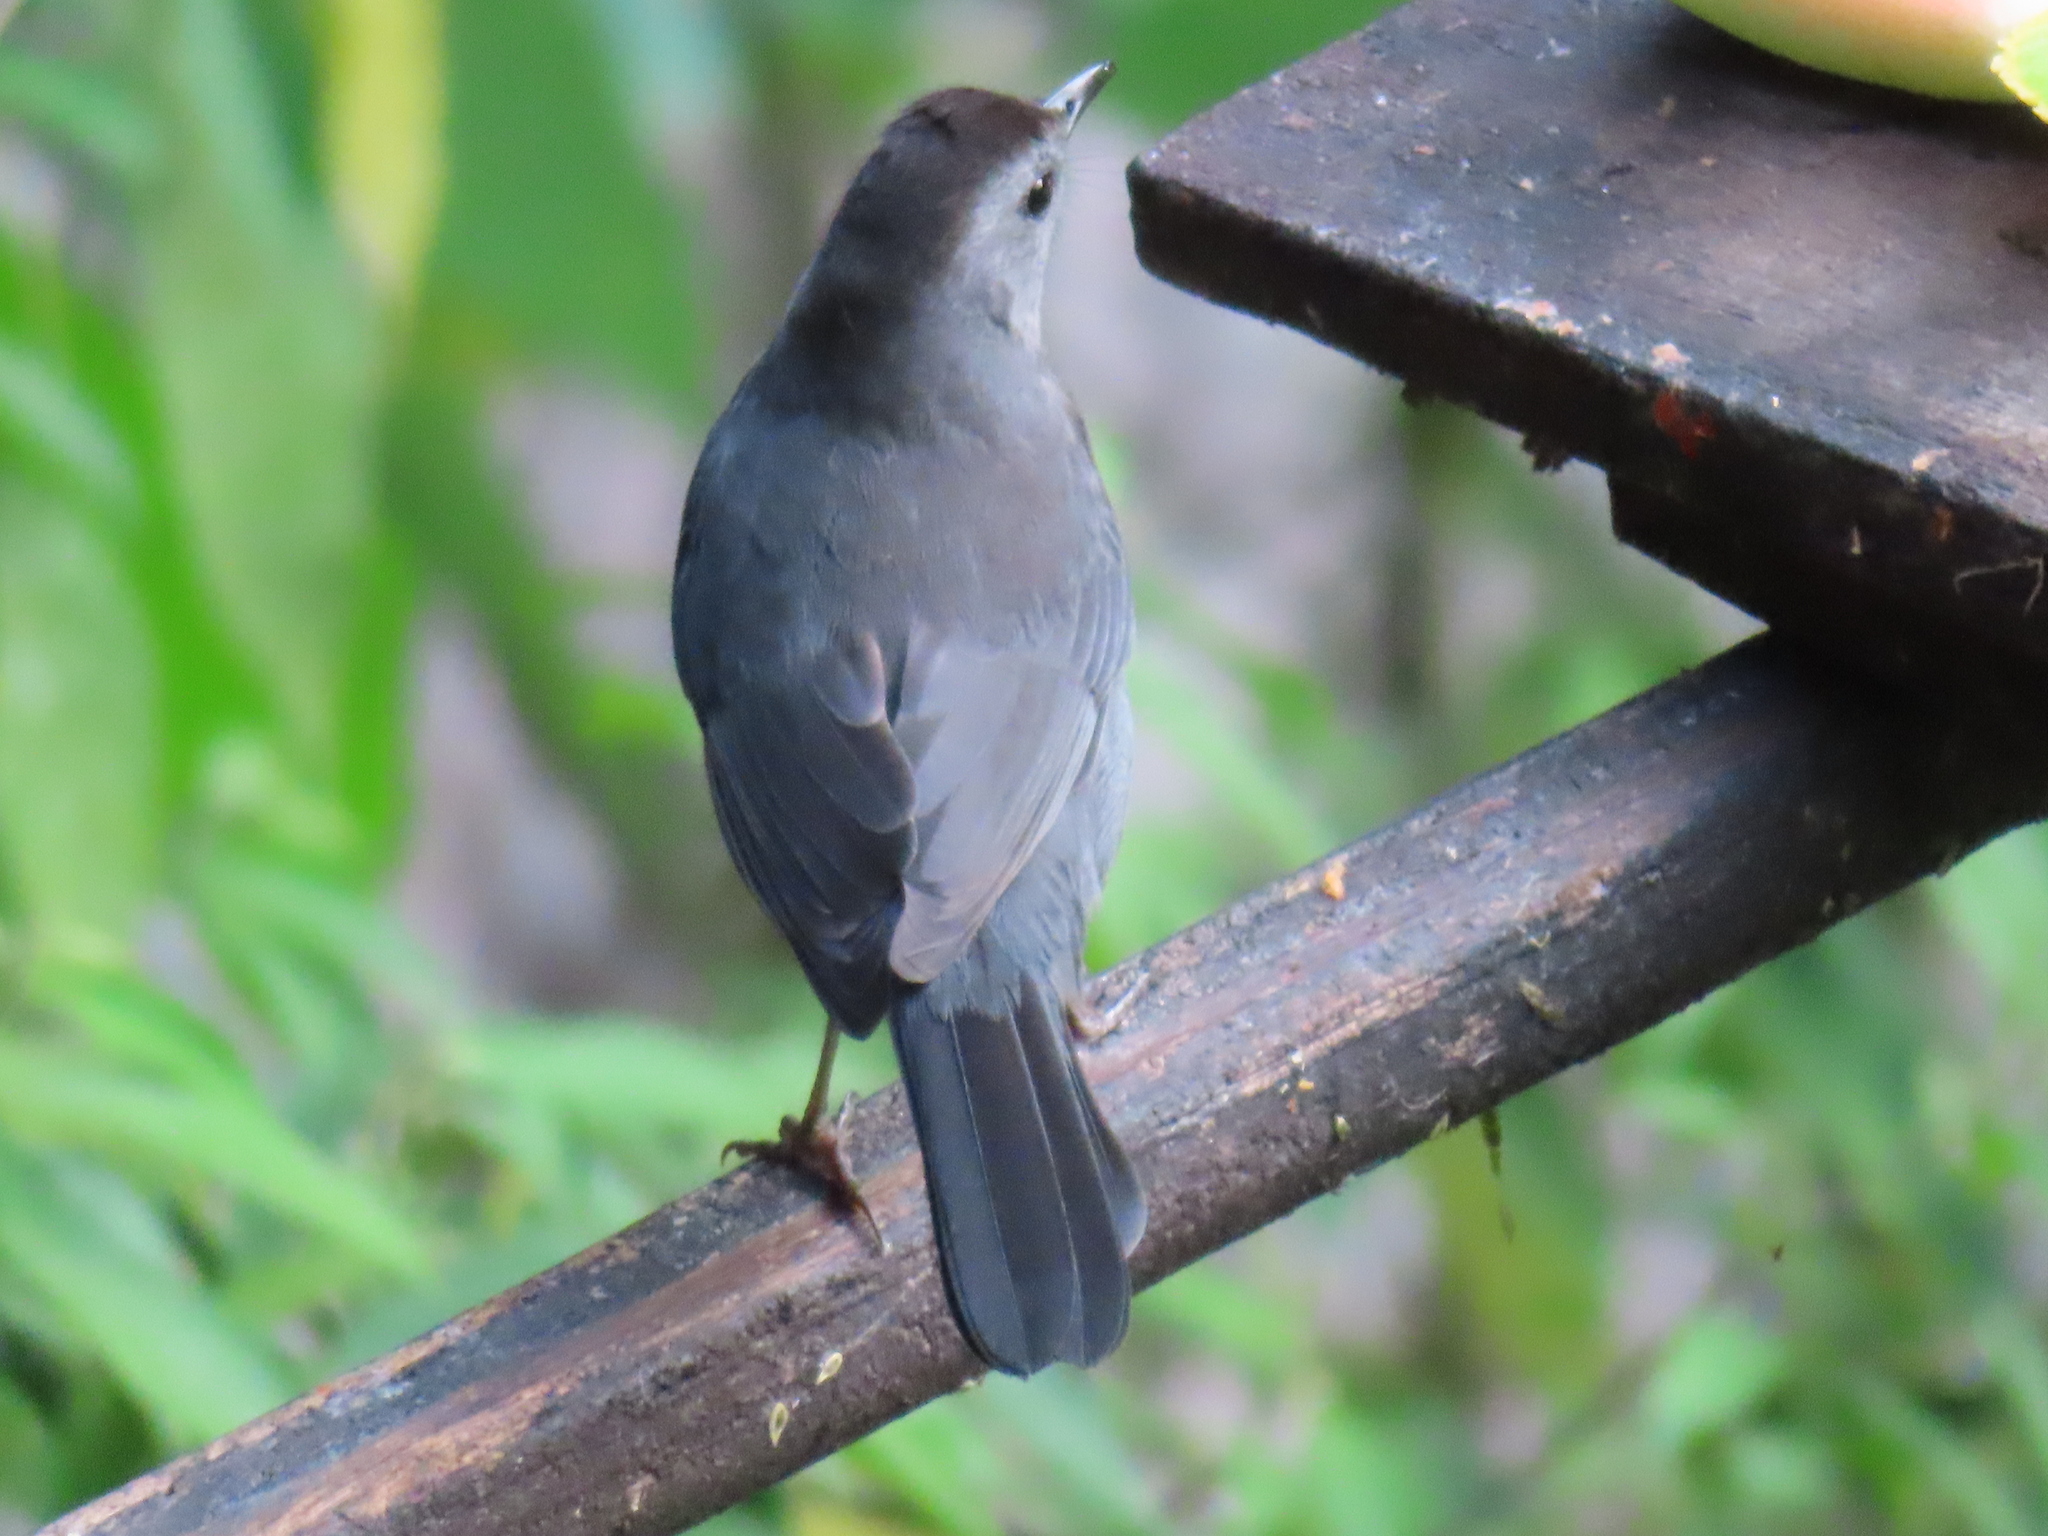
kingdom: Animalia
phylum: Chordata
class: Aves
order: Passeriformes
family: Mimidae
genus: Dumetella
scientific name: Dumetella carolinensis
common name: Gray catbird
